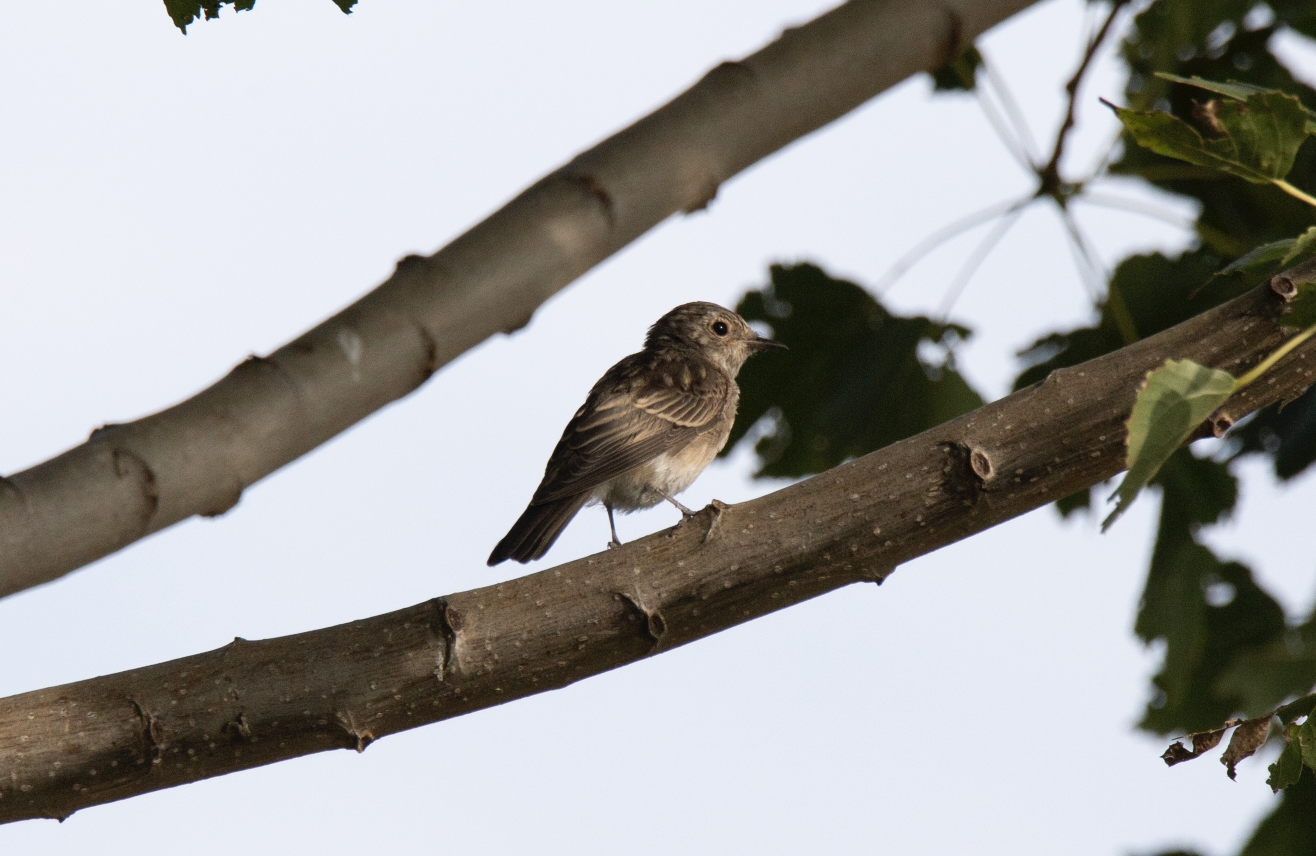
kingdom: Animalia
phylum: Chordata
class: Aves
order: Passeriformes
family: Muscicapidae
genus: Muscicapa
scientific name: Muscicapa striata
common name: Spotted flycatcher
